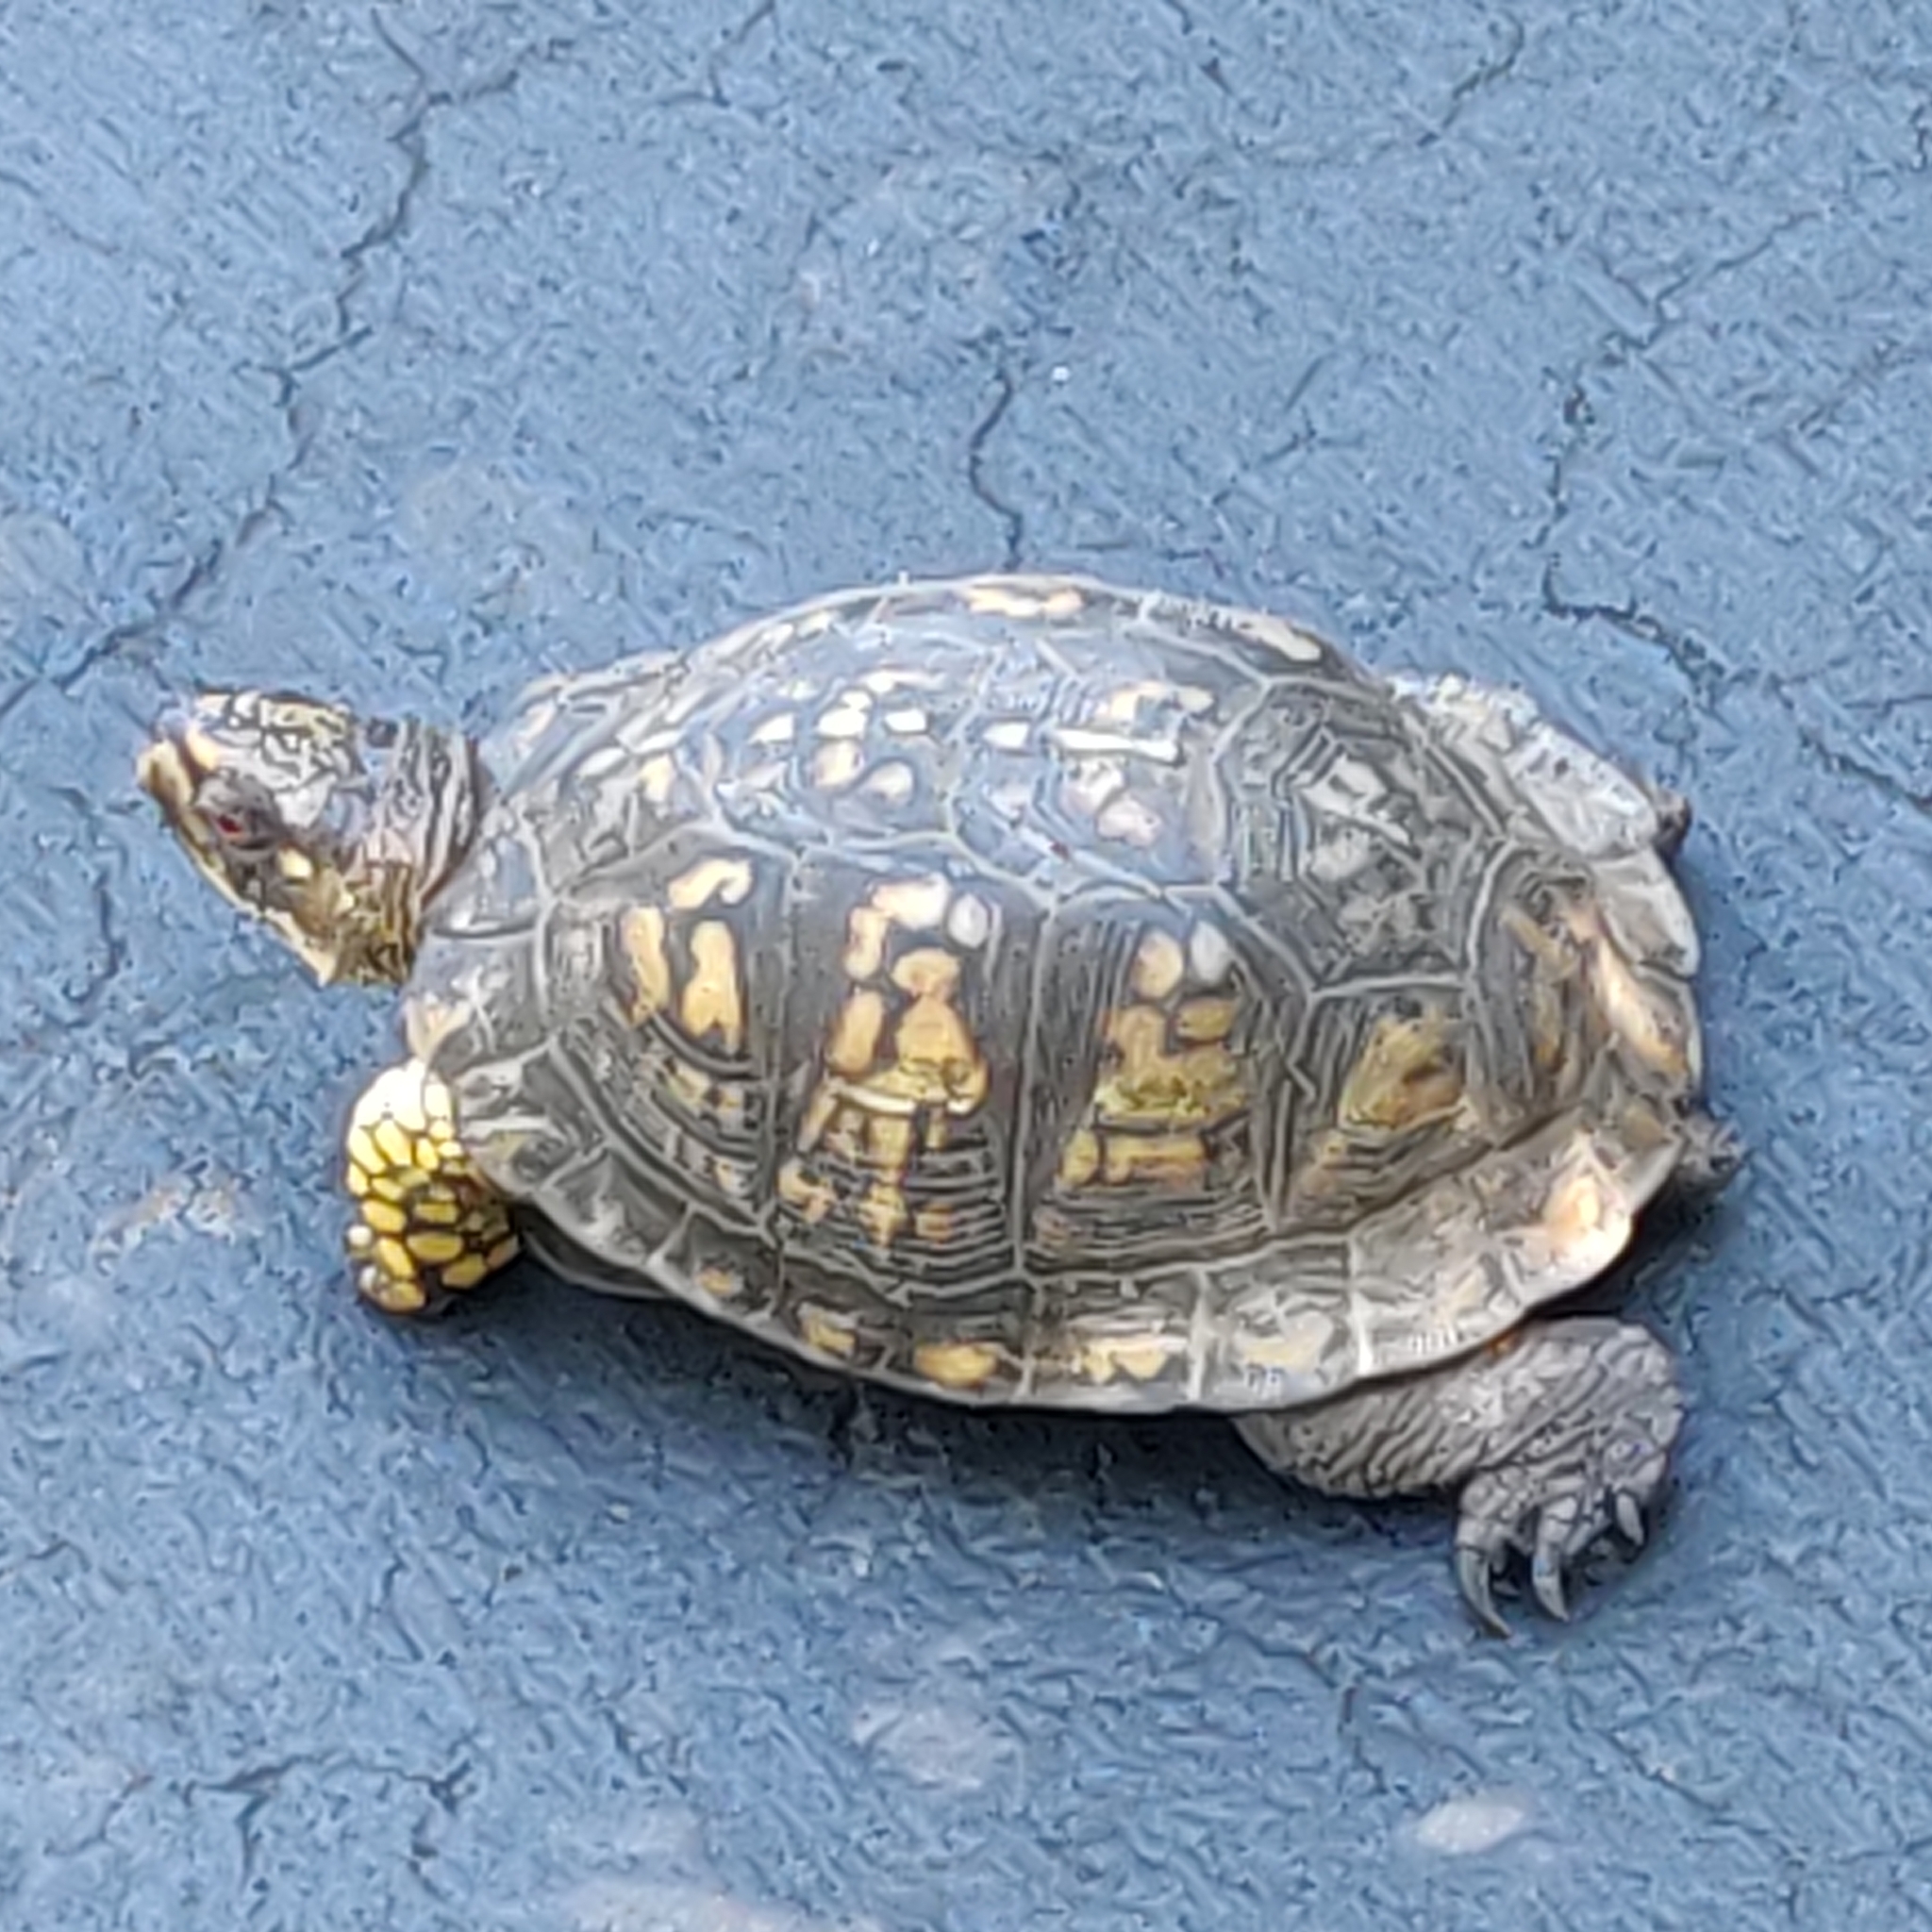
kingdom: Animalia
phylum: Chordata
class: Testudines
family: Emydidae
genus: Terrapene
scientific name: Terrapene carolina
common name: Common box turtle
